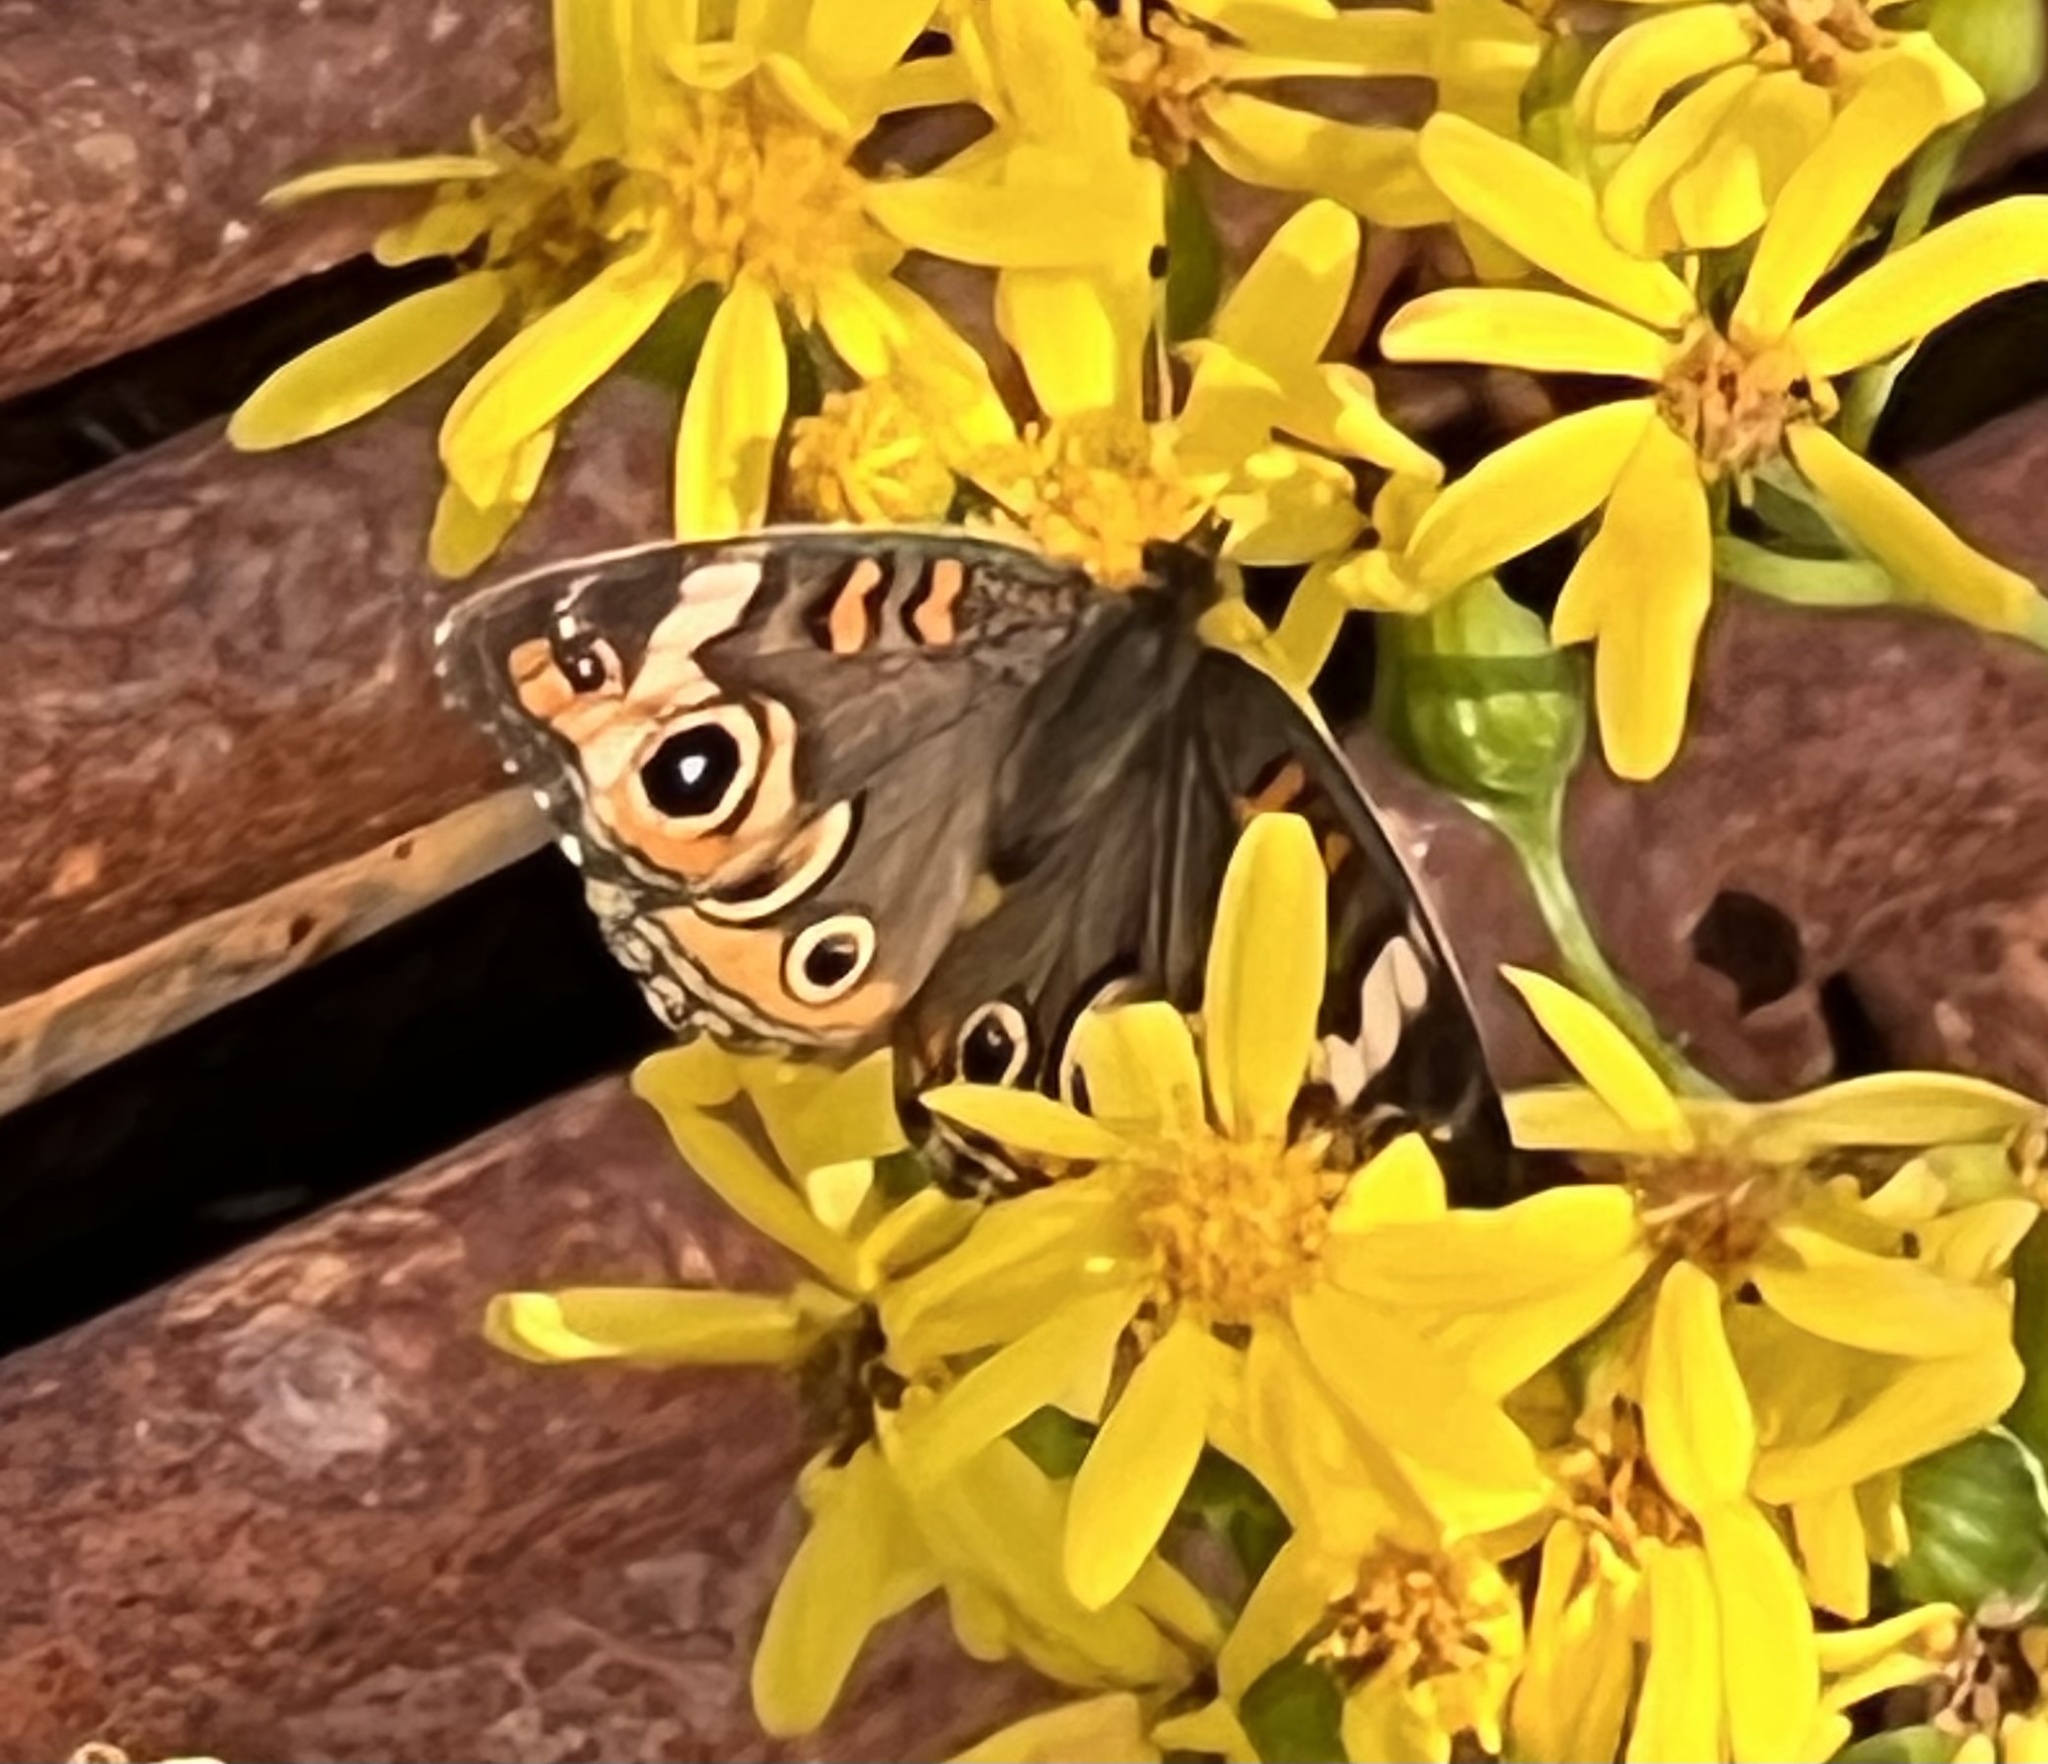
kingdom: Animalia
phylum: Arthropoda
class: Insecta
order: Lepidoptera
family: Nymphalidae
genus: Junonia
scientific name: Junonia coenia
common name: Common buckeye
